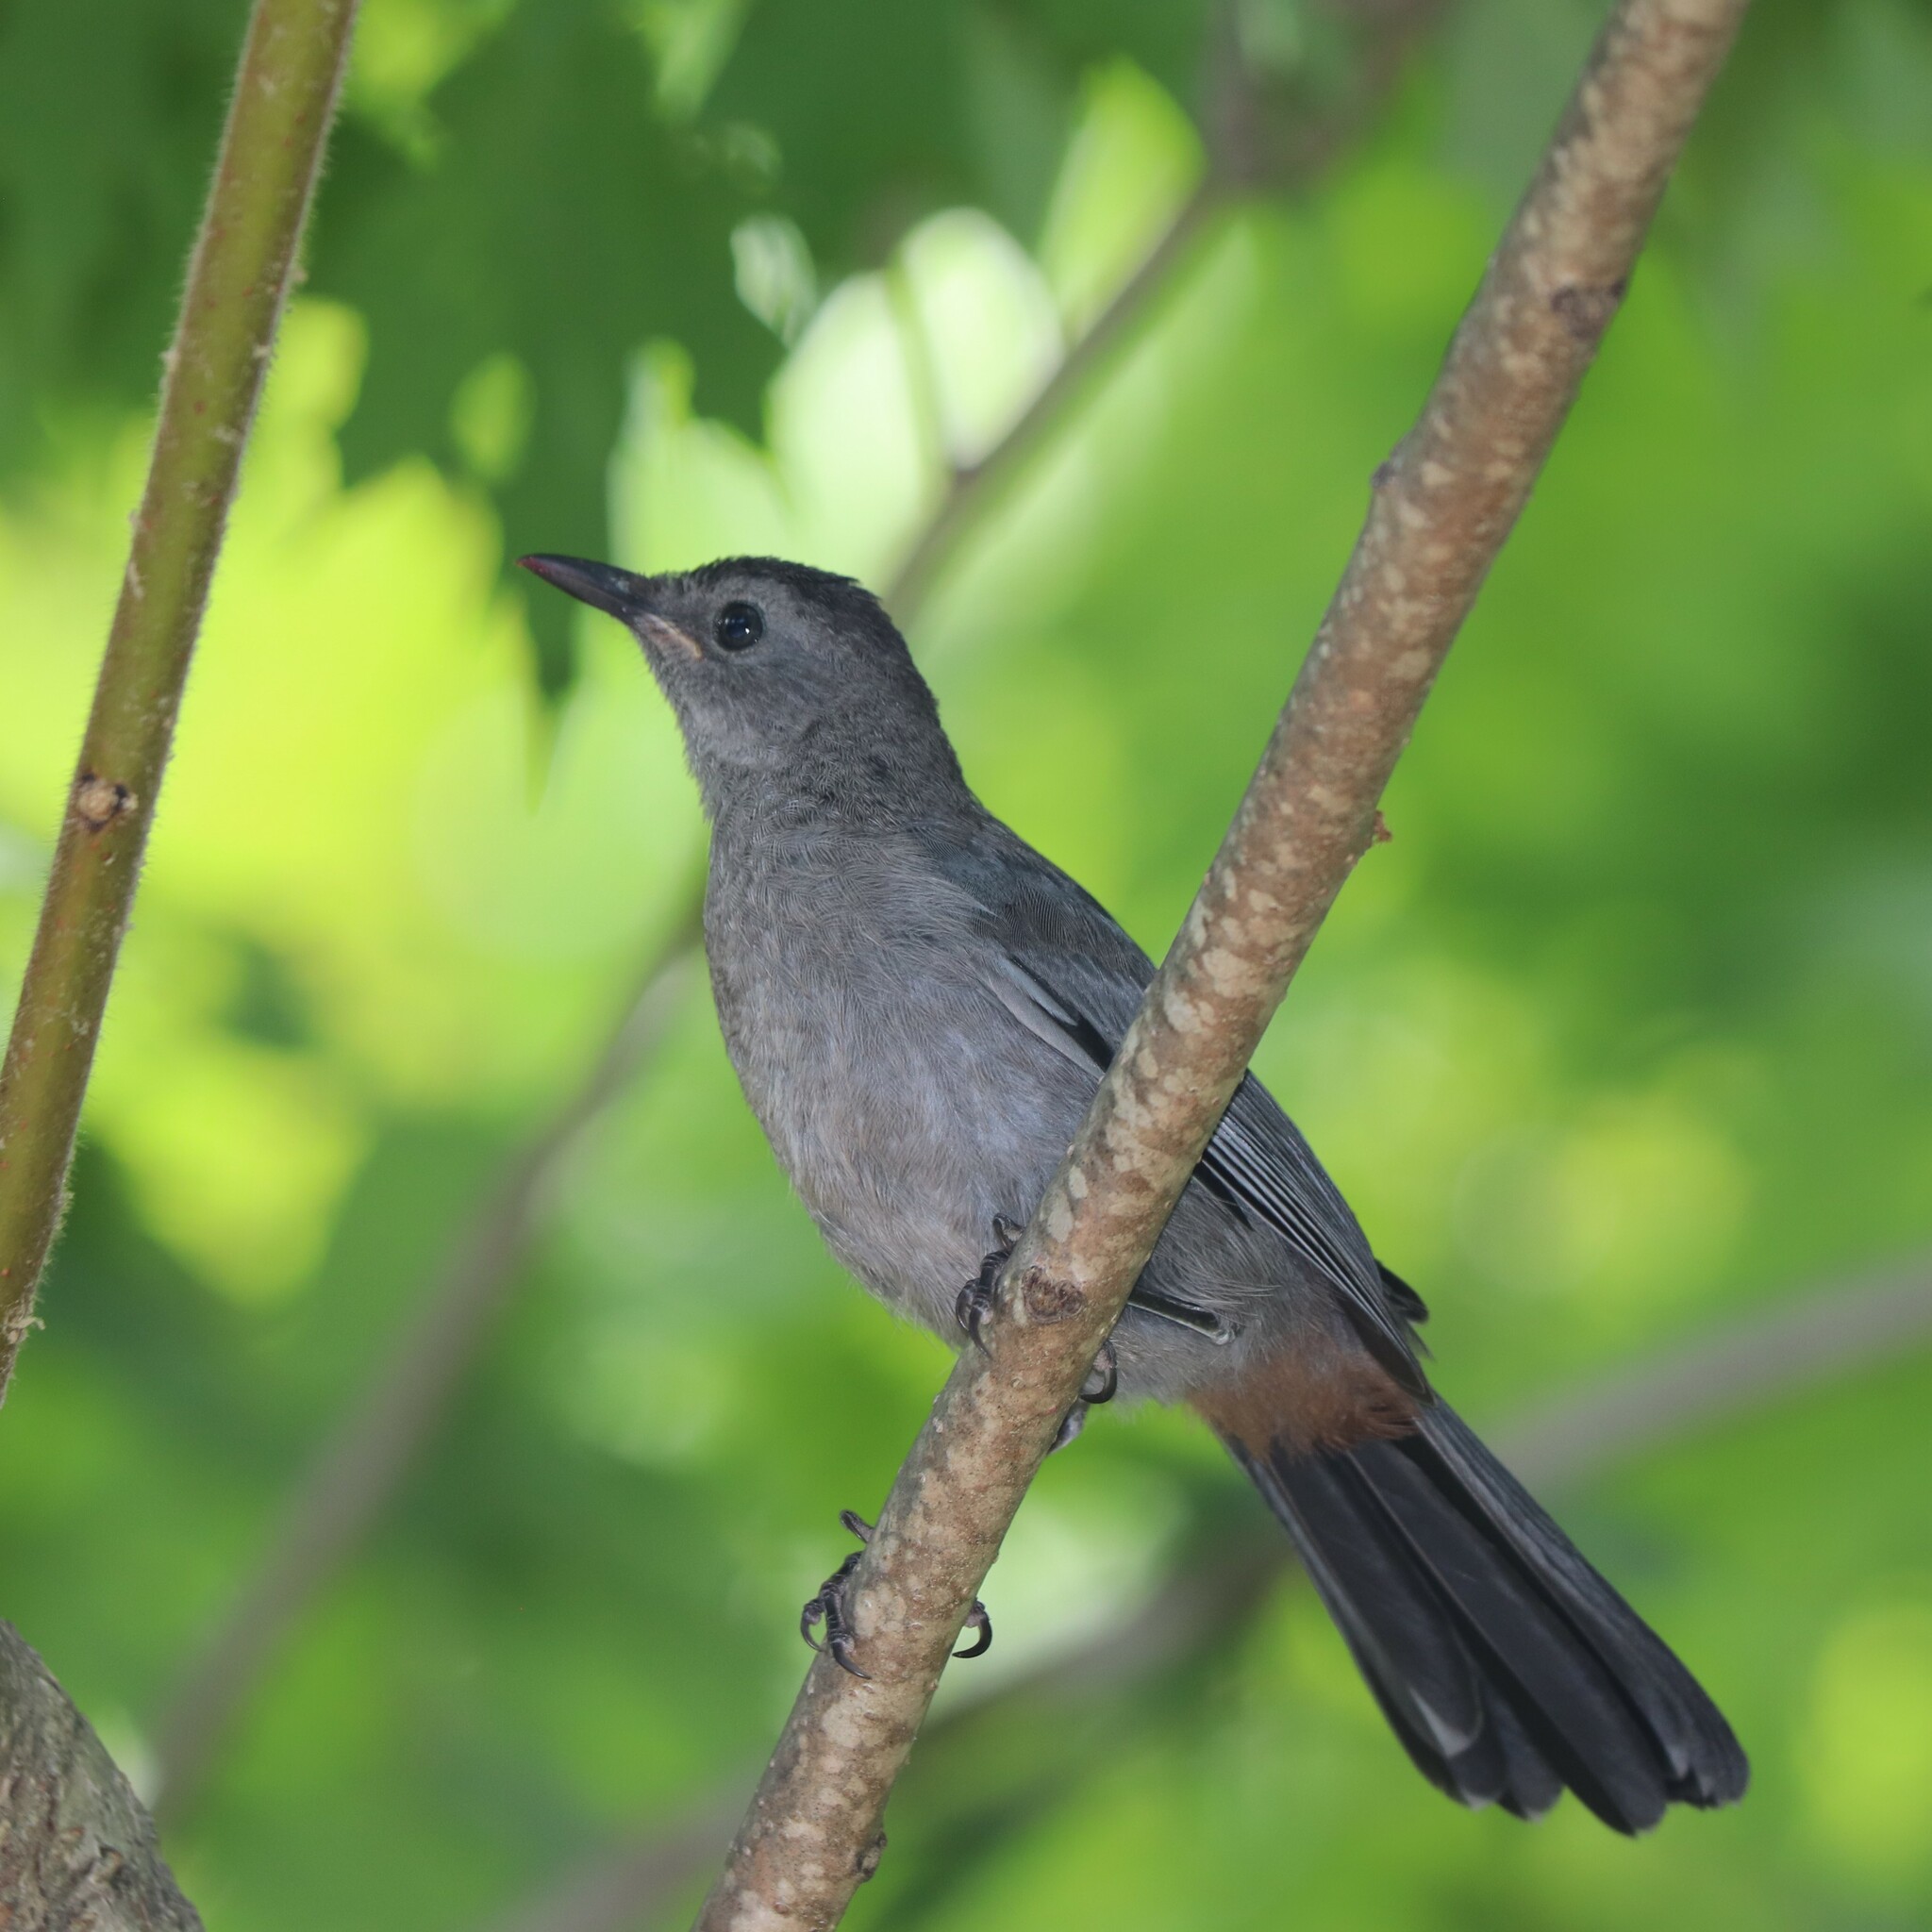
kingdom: Animalia
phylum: Chordata
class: Aves
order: Passeriformes
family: Mimidae
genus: Dumetella
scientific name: Dumetella carolinensis
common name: Gray catbird
